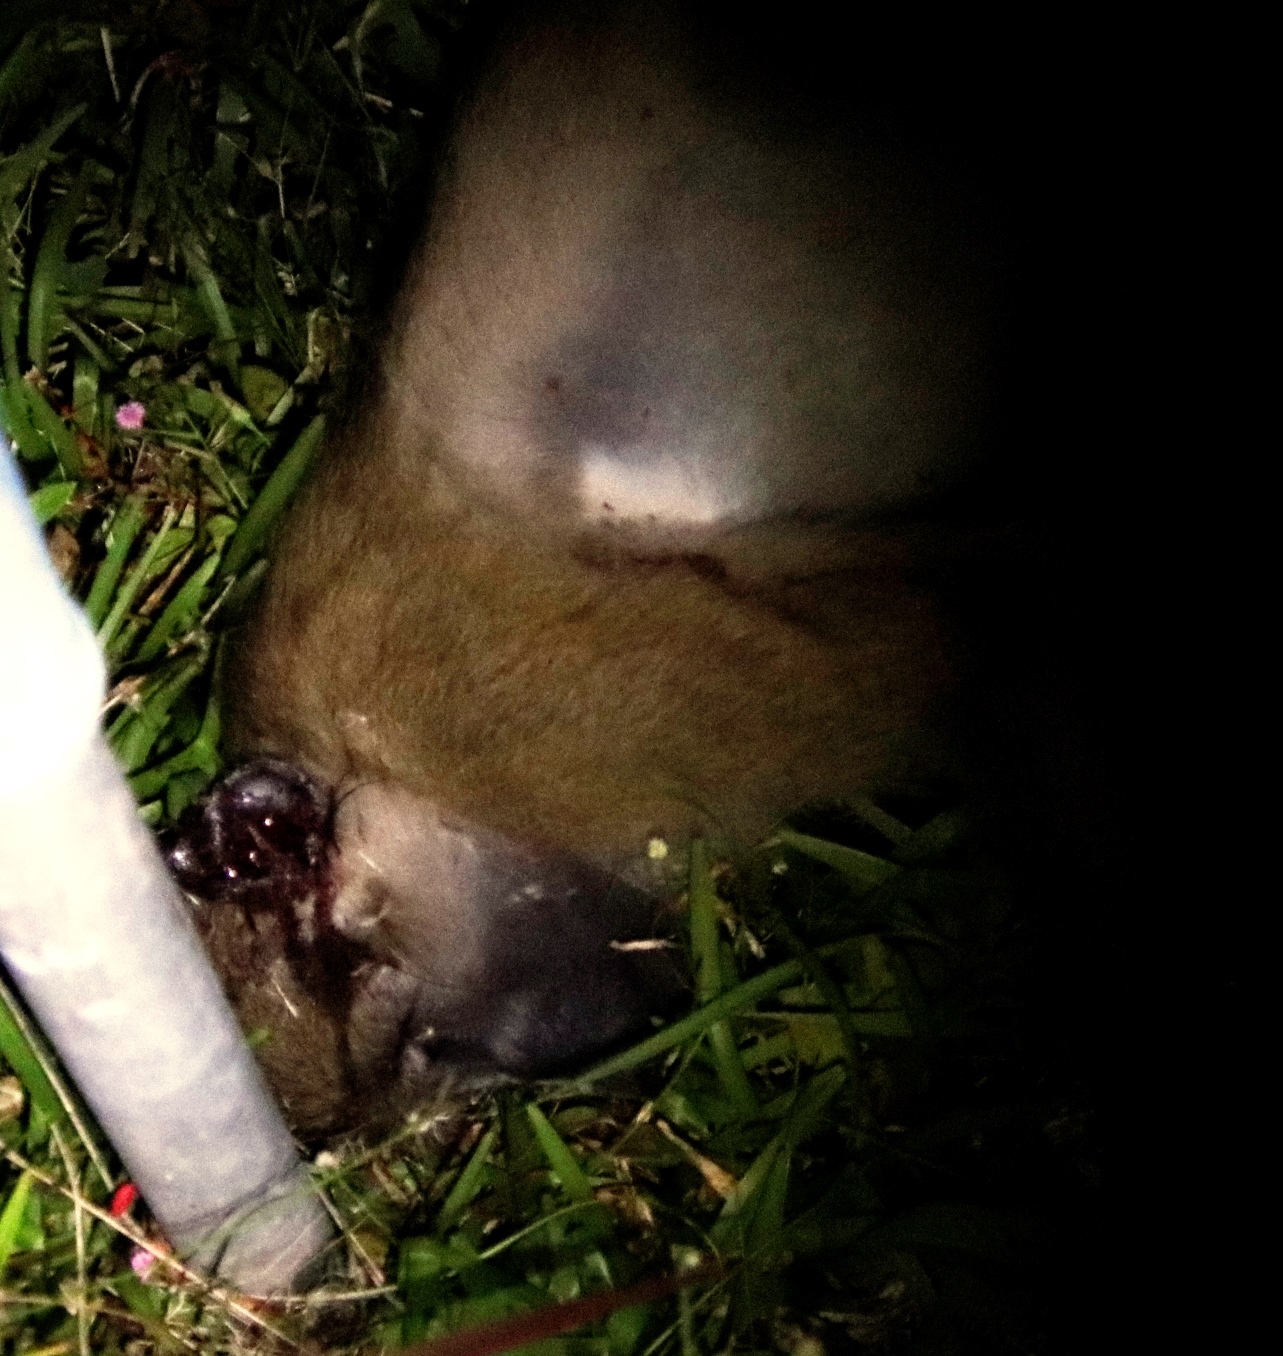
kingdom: Animalia
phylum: Chordata
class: Mammalia
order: Primates
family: Cercopithecidae
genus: Papio
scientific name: Papio ursinus
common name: Chacma baboon
